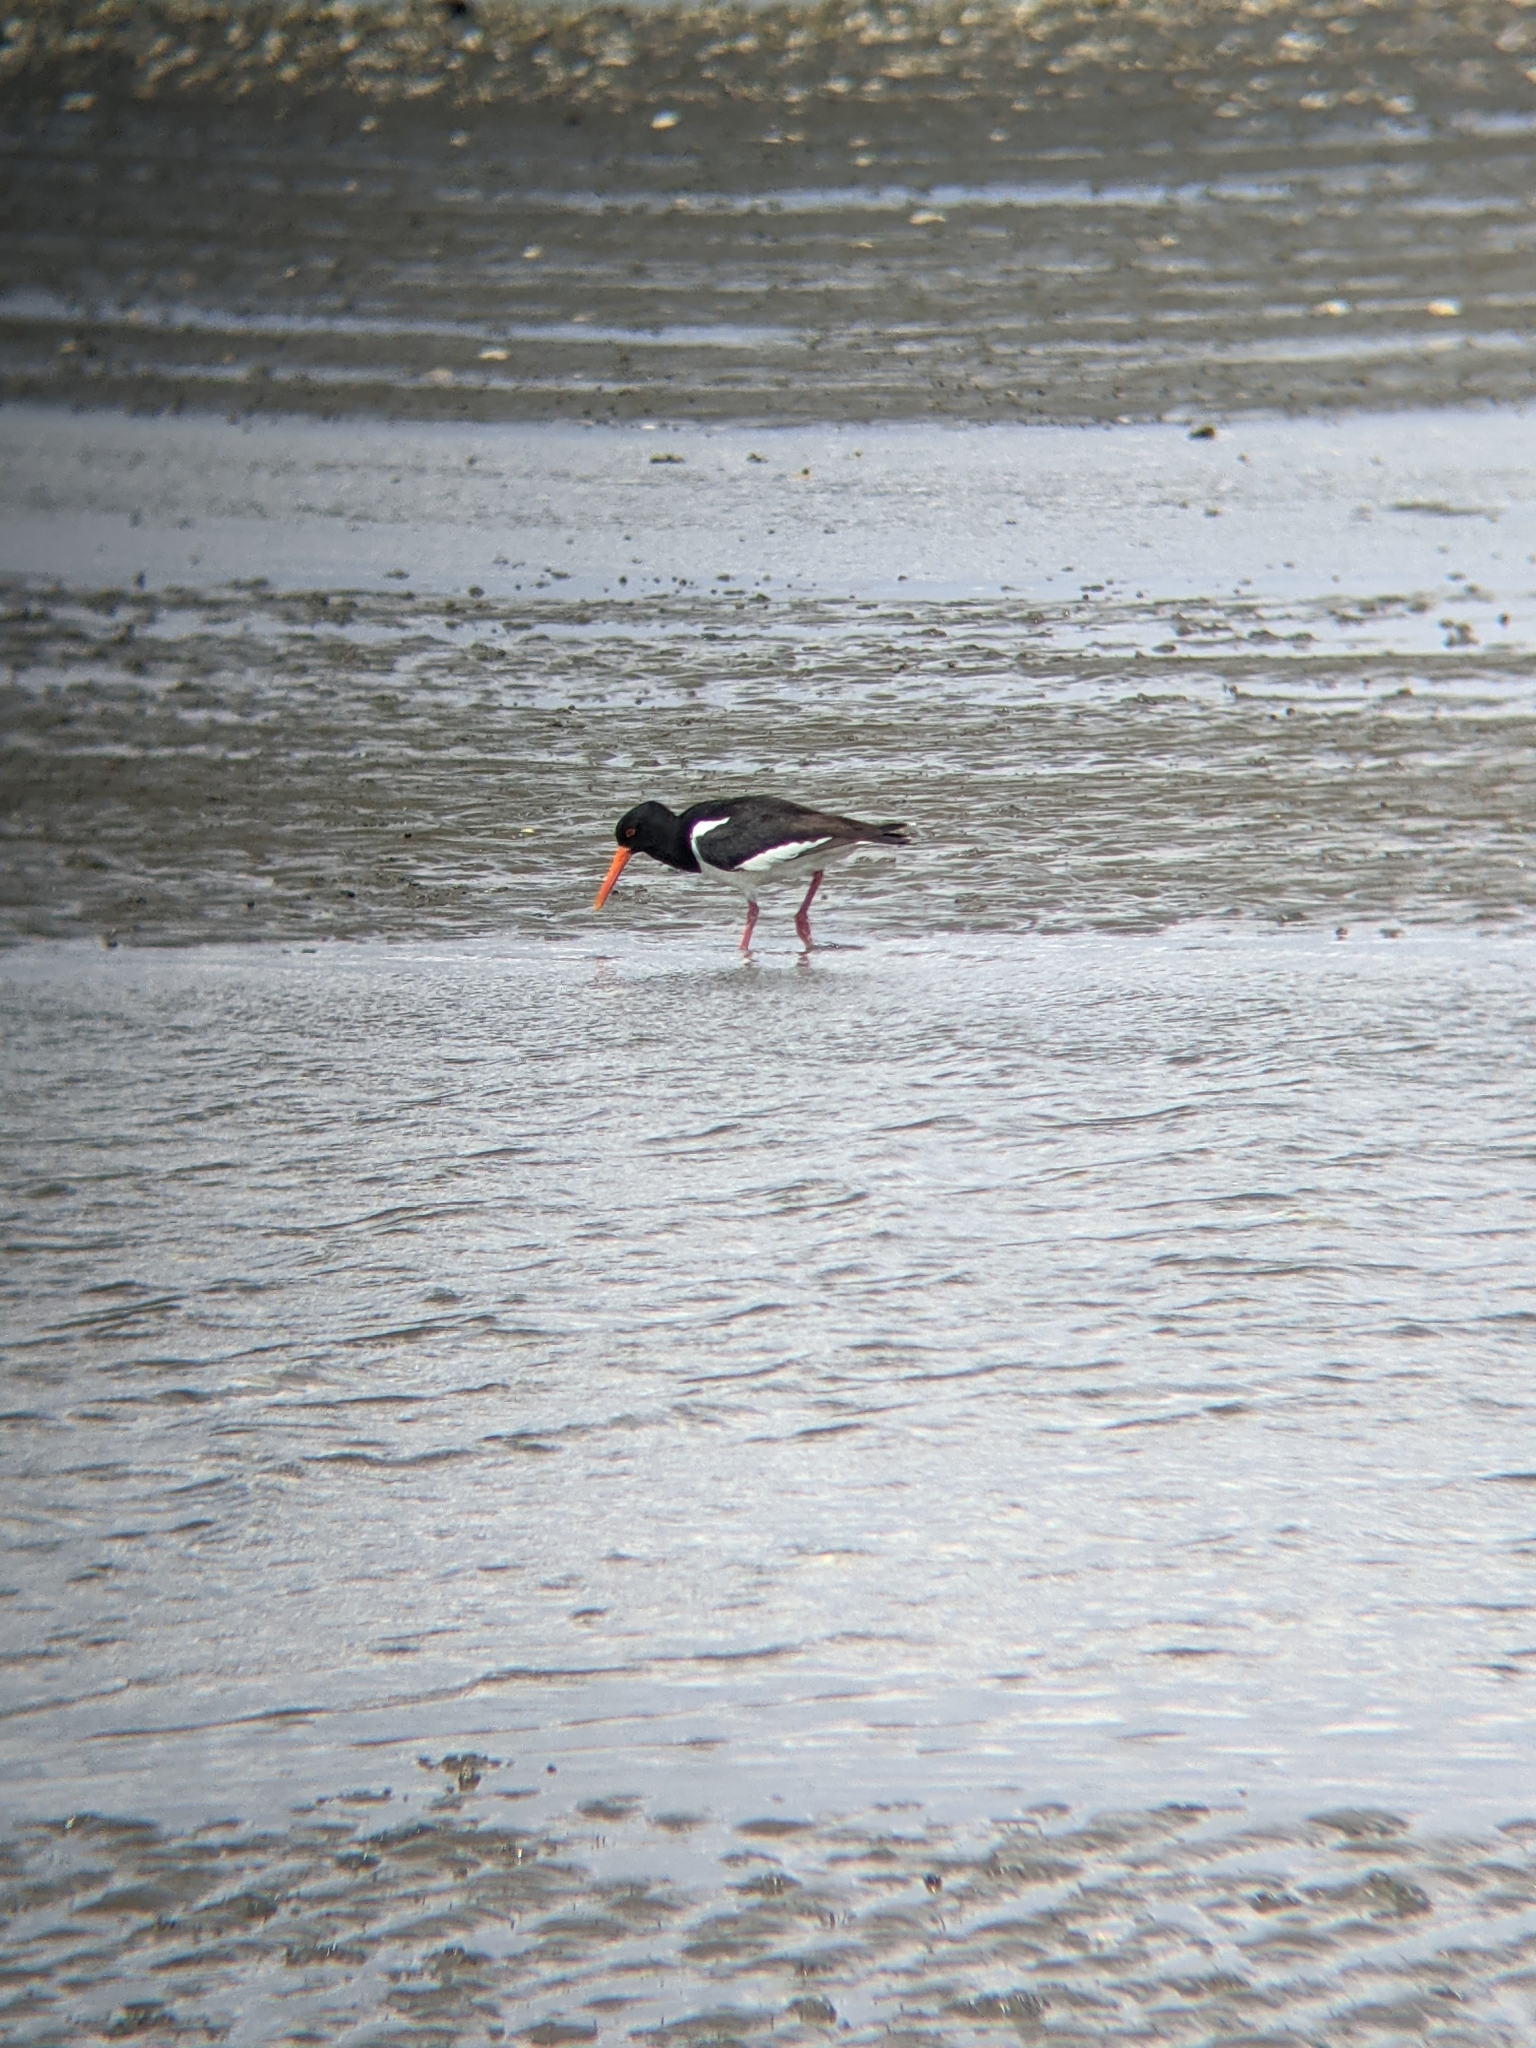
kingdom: Animalia
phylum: Chordata
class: Aves
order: Charadriiformes
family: Haematopodidae
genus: Haematopus
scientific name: Haematopus ostralegus
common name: Eurasian oystercatcher
